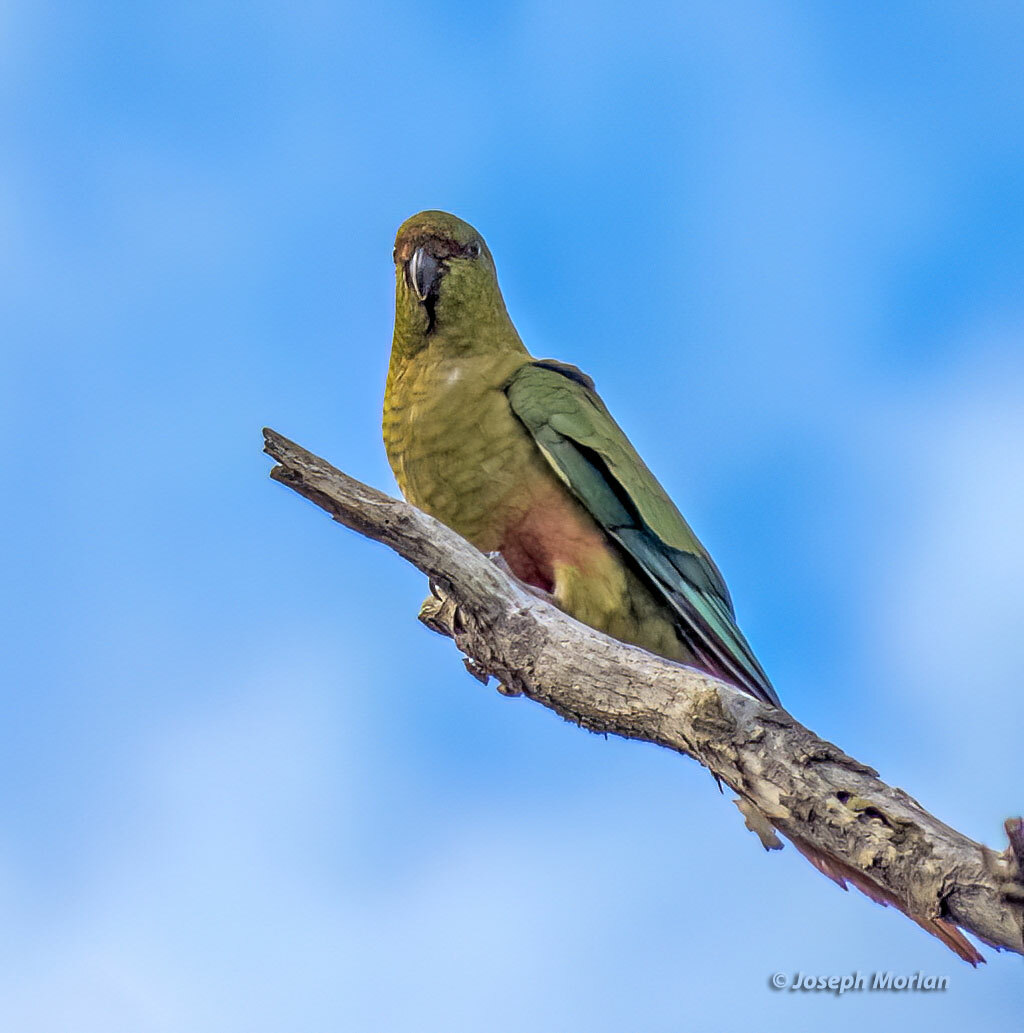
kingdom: Animalia
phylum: Chordata
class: Aves
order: Psittaciformes
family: Psittacidae
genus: Enicognathus
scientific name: Enicognathus ferrugineus
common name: Austral parakeet
